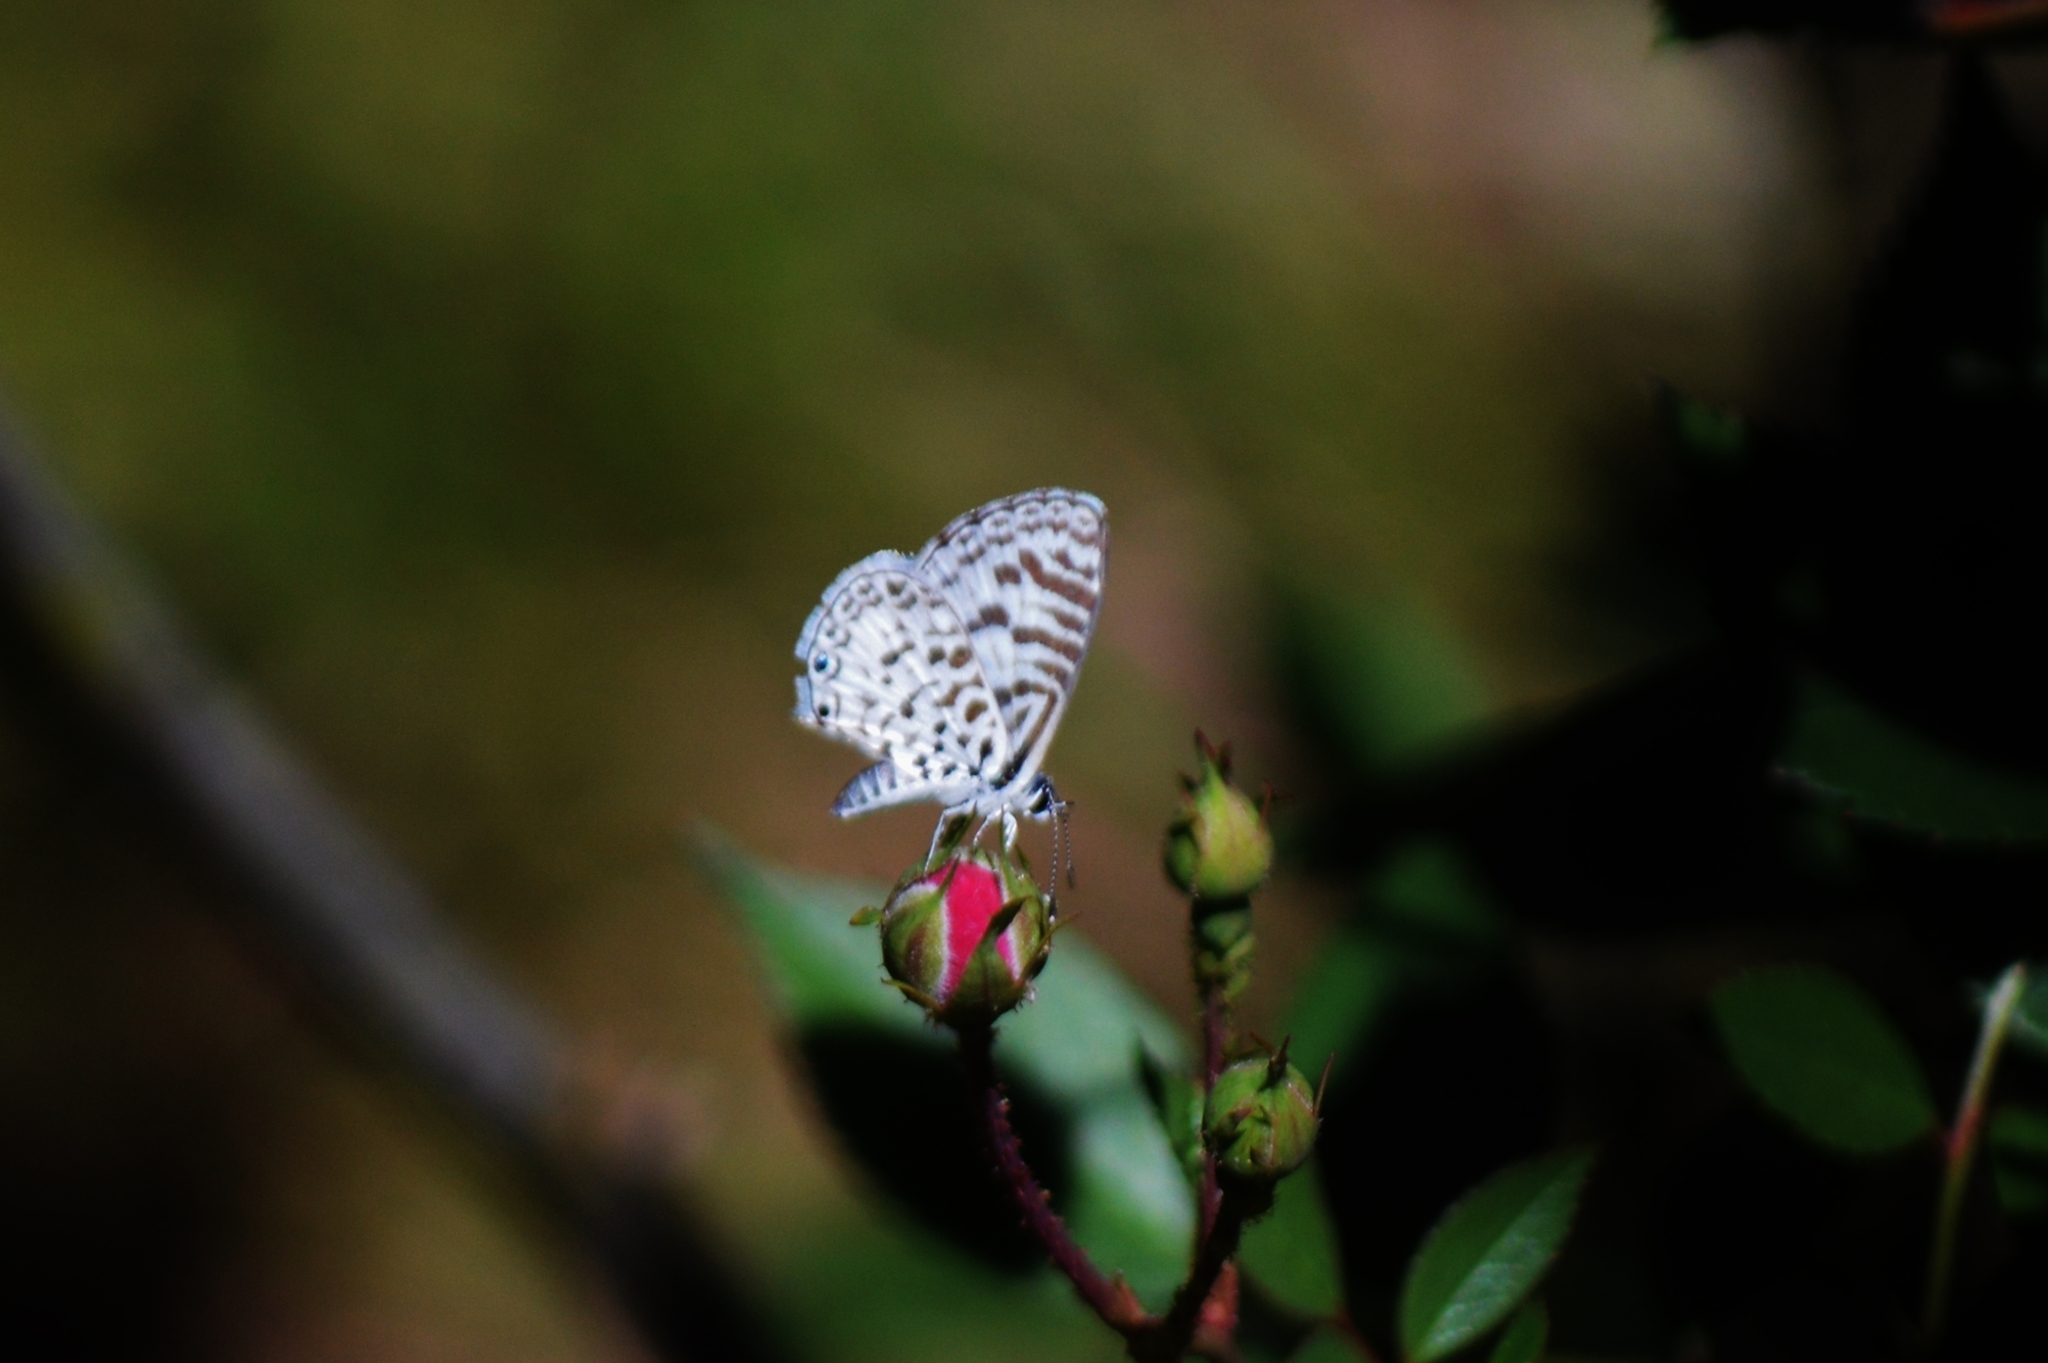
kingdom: Animalia
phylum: Arthropoda
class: Insecta
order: Lepidoptera
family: Lycaenidae
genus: Leptotes
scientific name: Leptotes cassius
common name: Cassius blue
